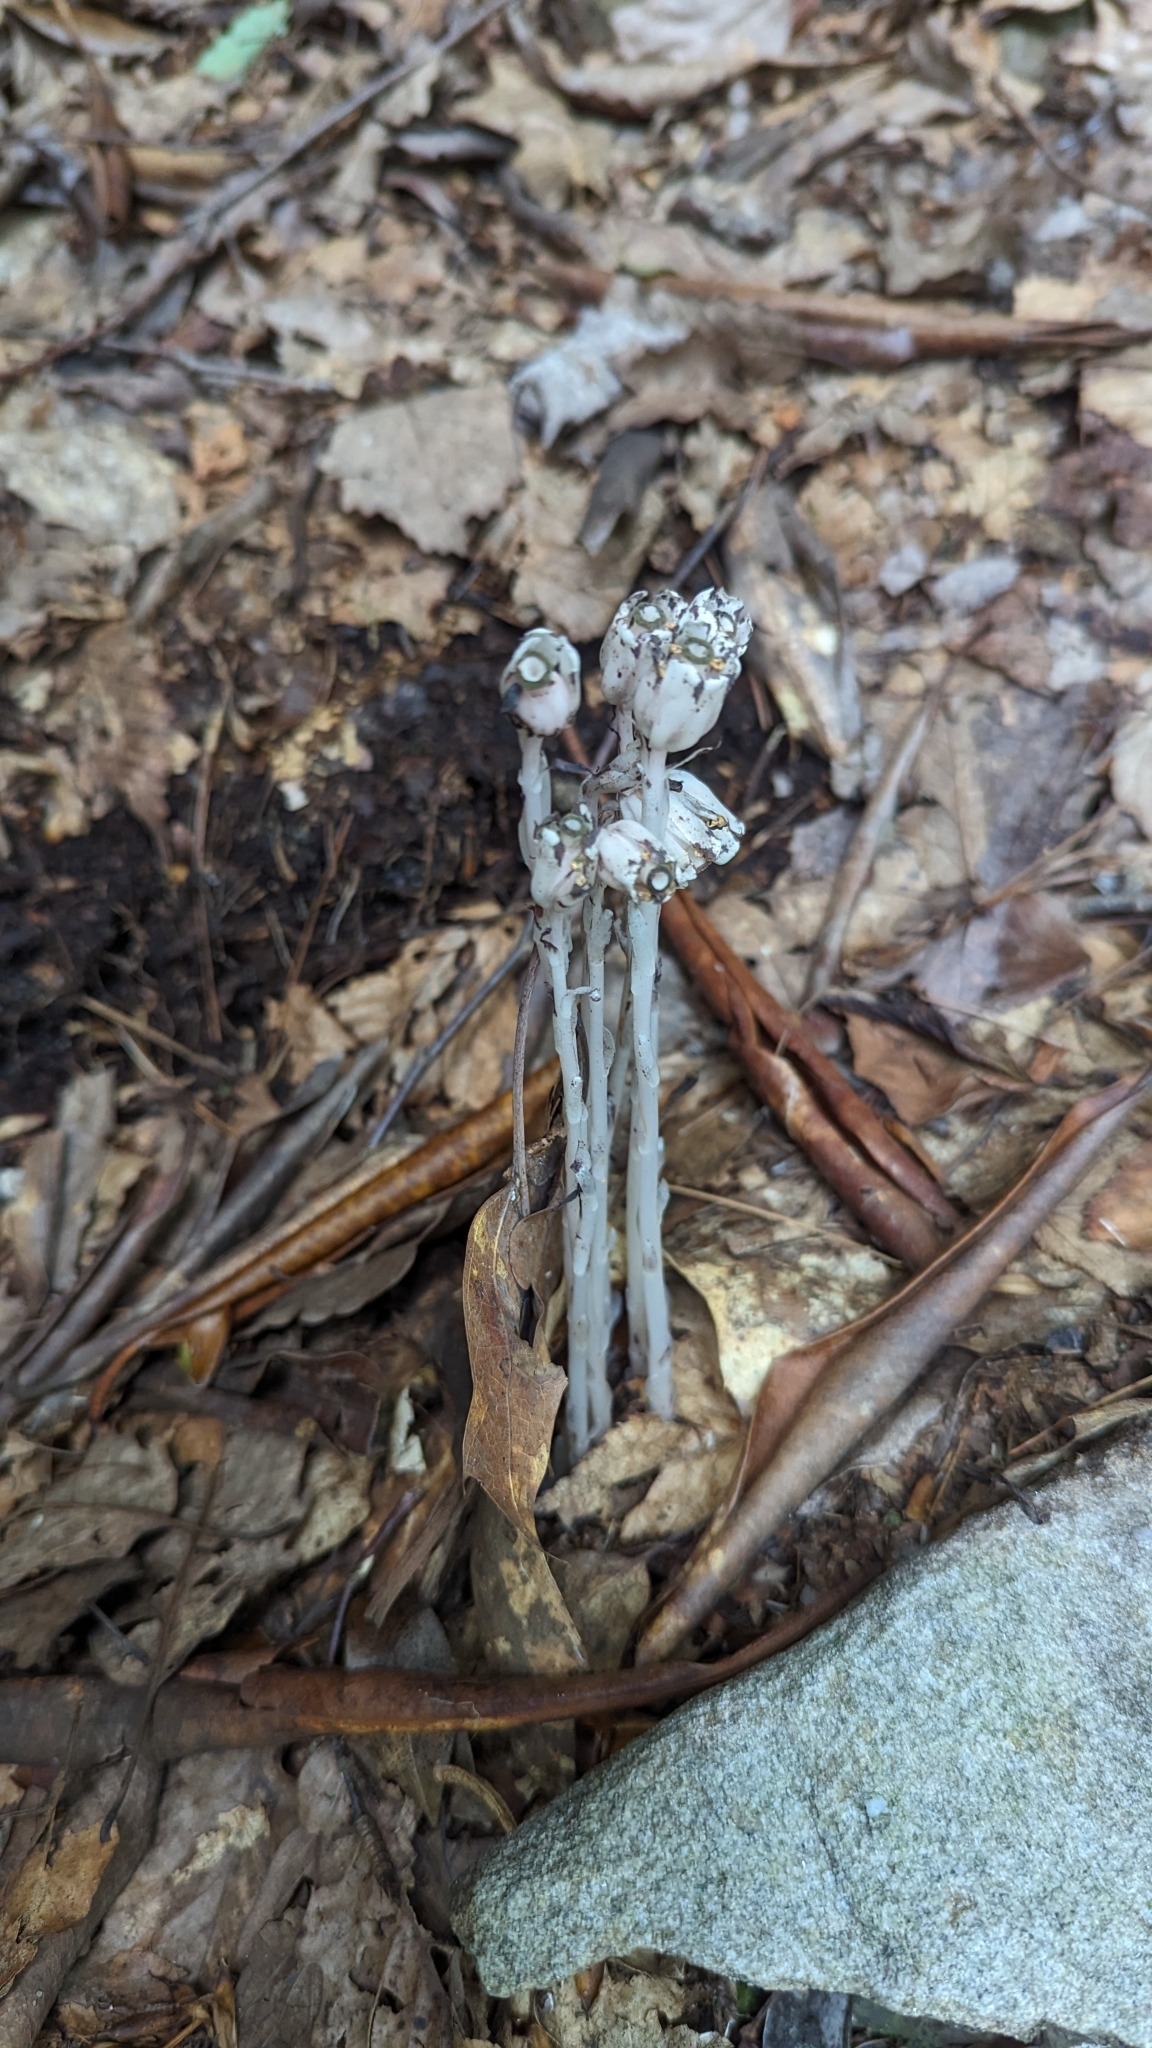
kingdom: Plantae
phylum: Tracheophyta
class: Magnoliopsida
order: Ericales
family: Ericaceae
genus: Monotropa
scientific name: Monotropa uniflora
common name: Convulsion root
